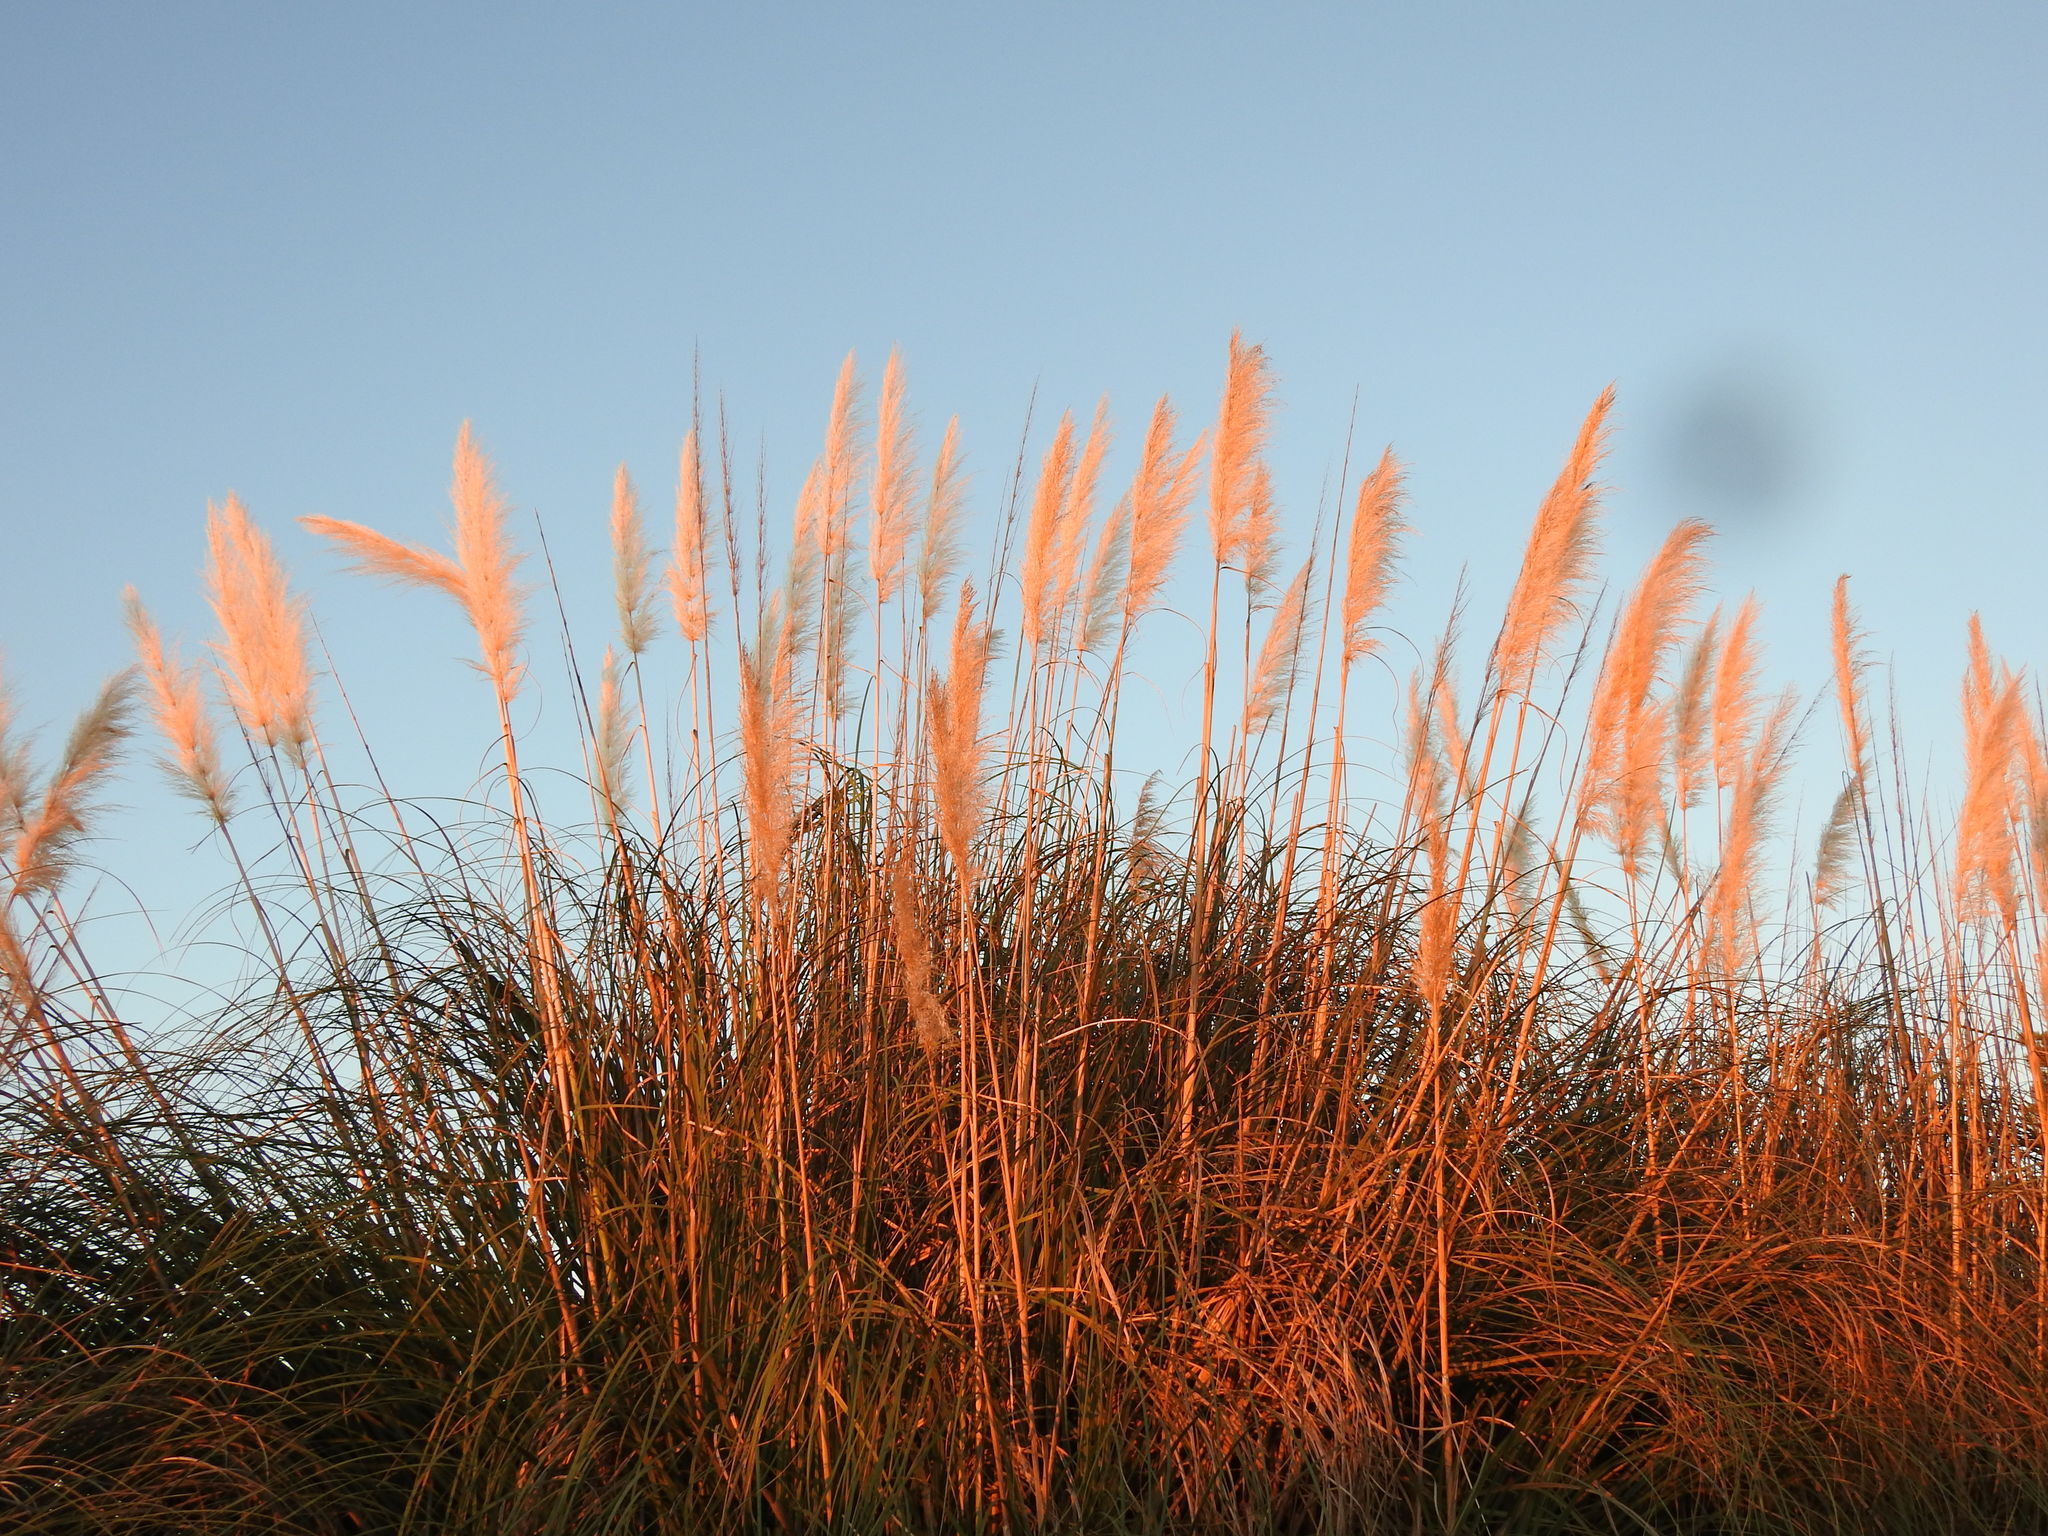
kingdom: Plantae
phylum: Tracheophyta
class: Liliopsida
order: Poales
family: Poaceae
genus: Cortaderia
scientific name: Cortaderia selloana
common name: Uruguayan pampas grass
